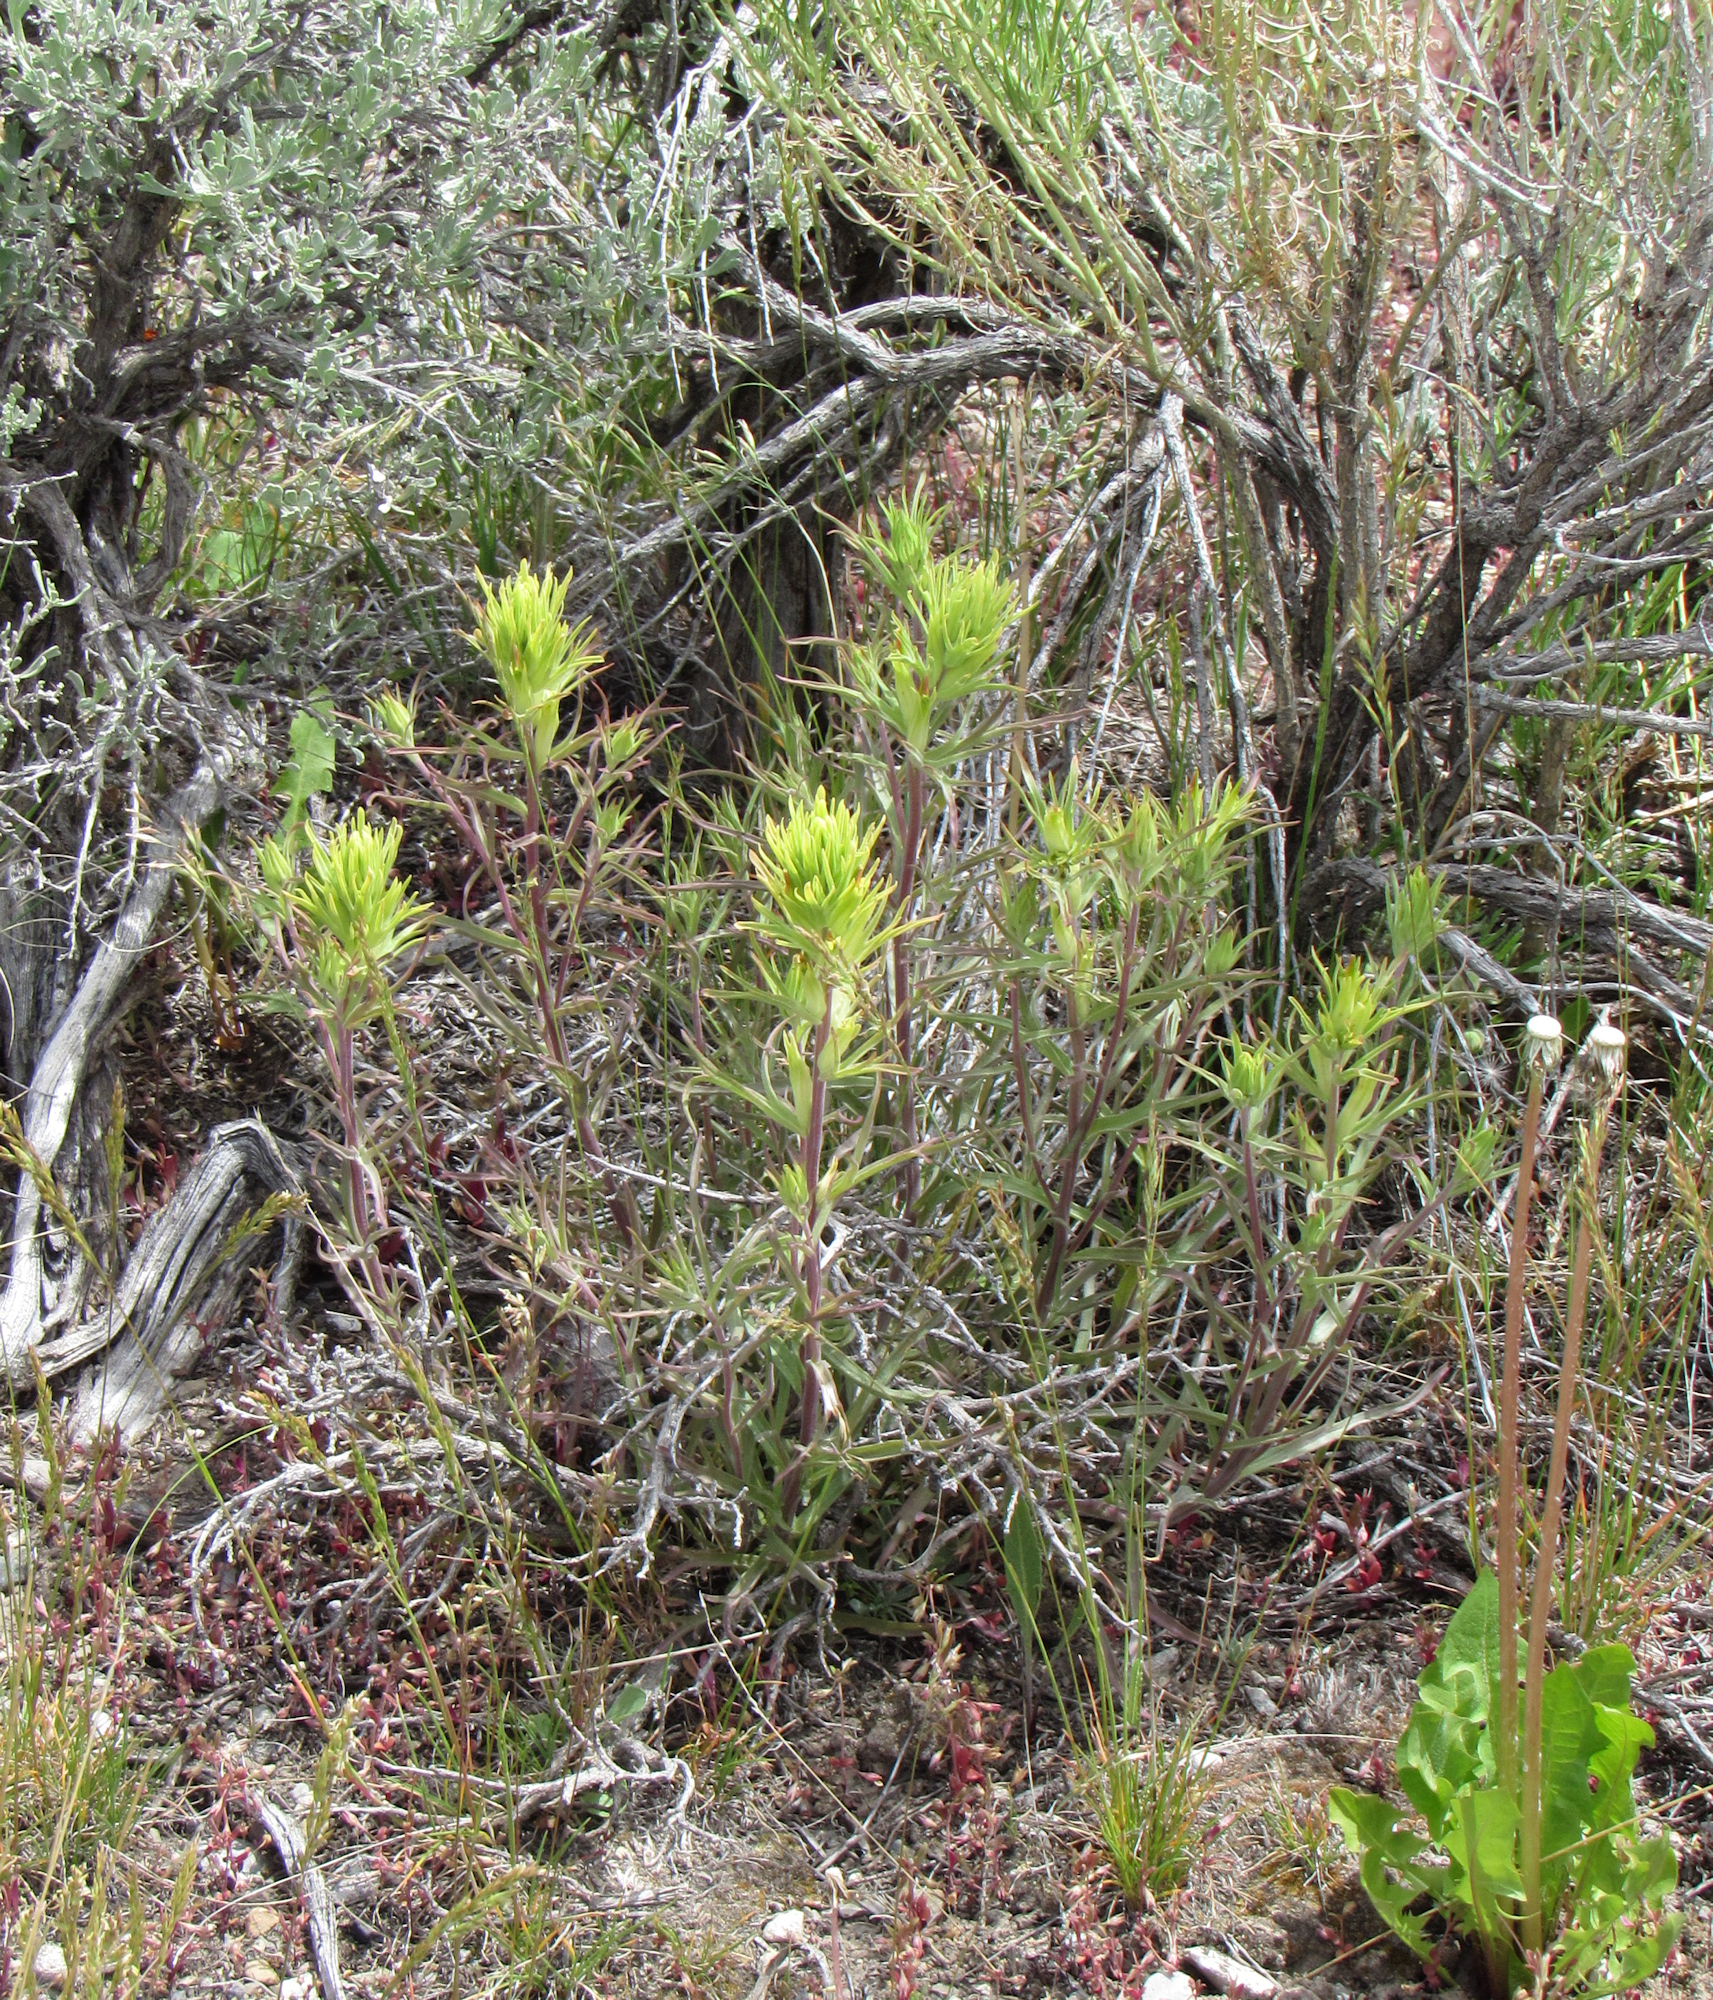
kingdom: Plantae
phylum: Tracheophyta
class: Magnoliopsida
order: Lamiales
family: Orobanchaceae
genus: Castilleja
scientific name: Castilleja flava
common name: Yellow paintbrush
